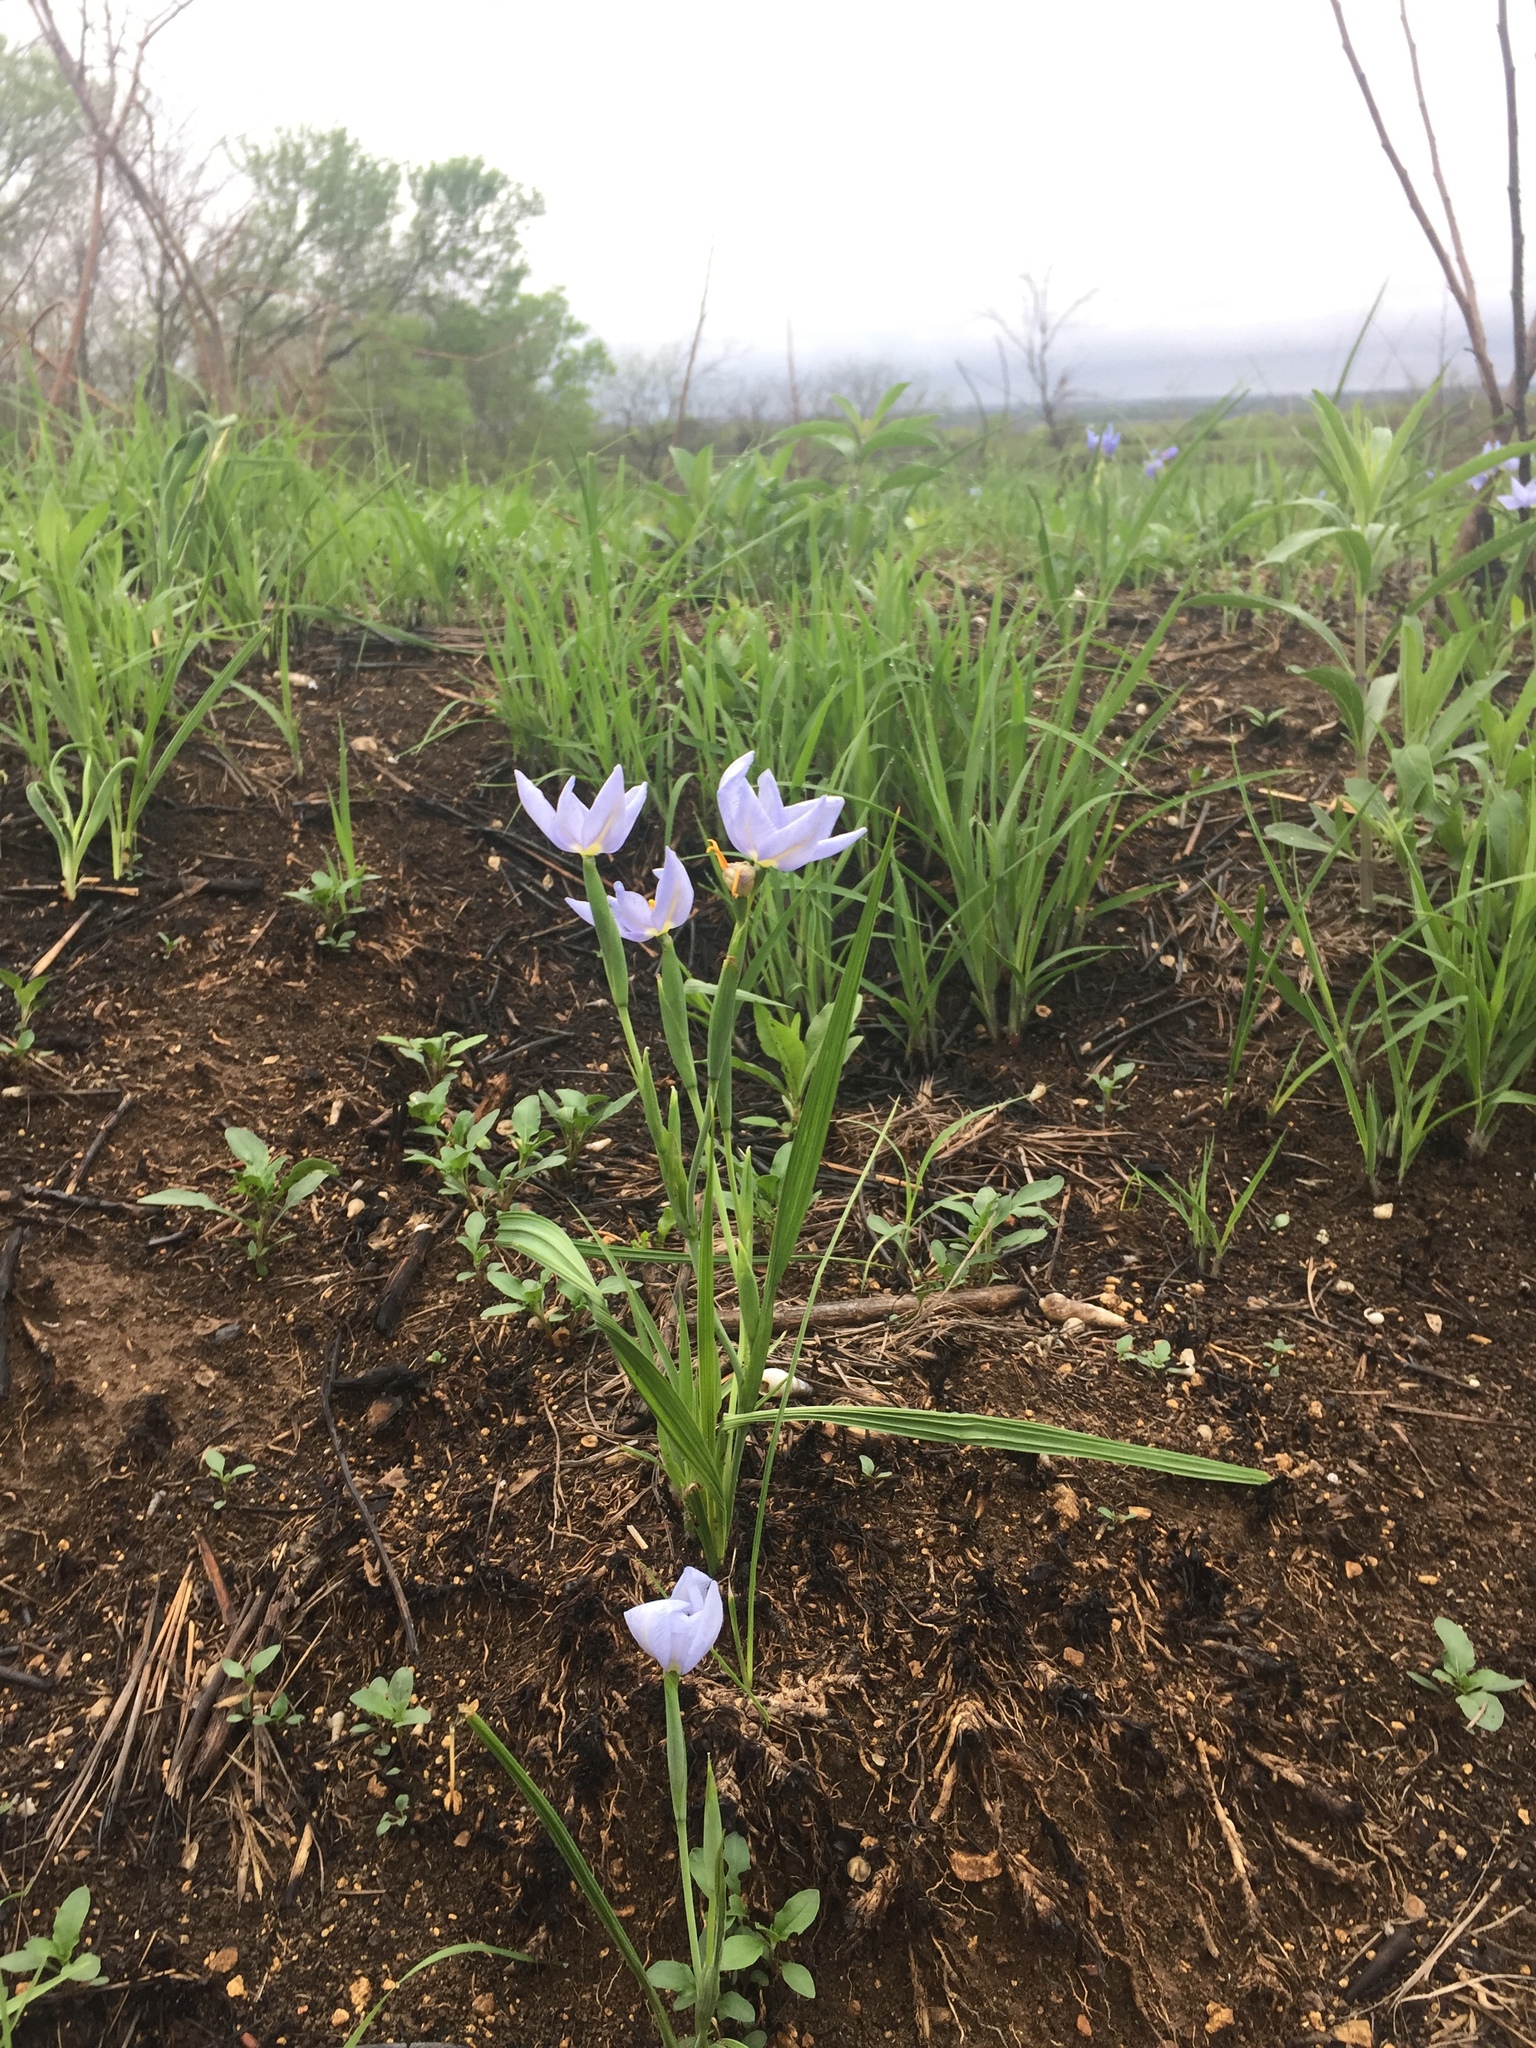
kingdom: Plantae
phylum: Tracheophyta
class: Liliopsida
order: Asparagales
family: Iridaceae
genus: Nemastylis
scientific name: Nemastylis geminiflora
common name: Prairie celestial
